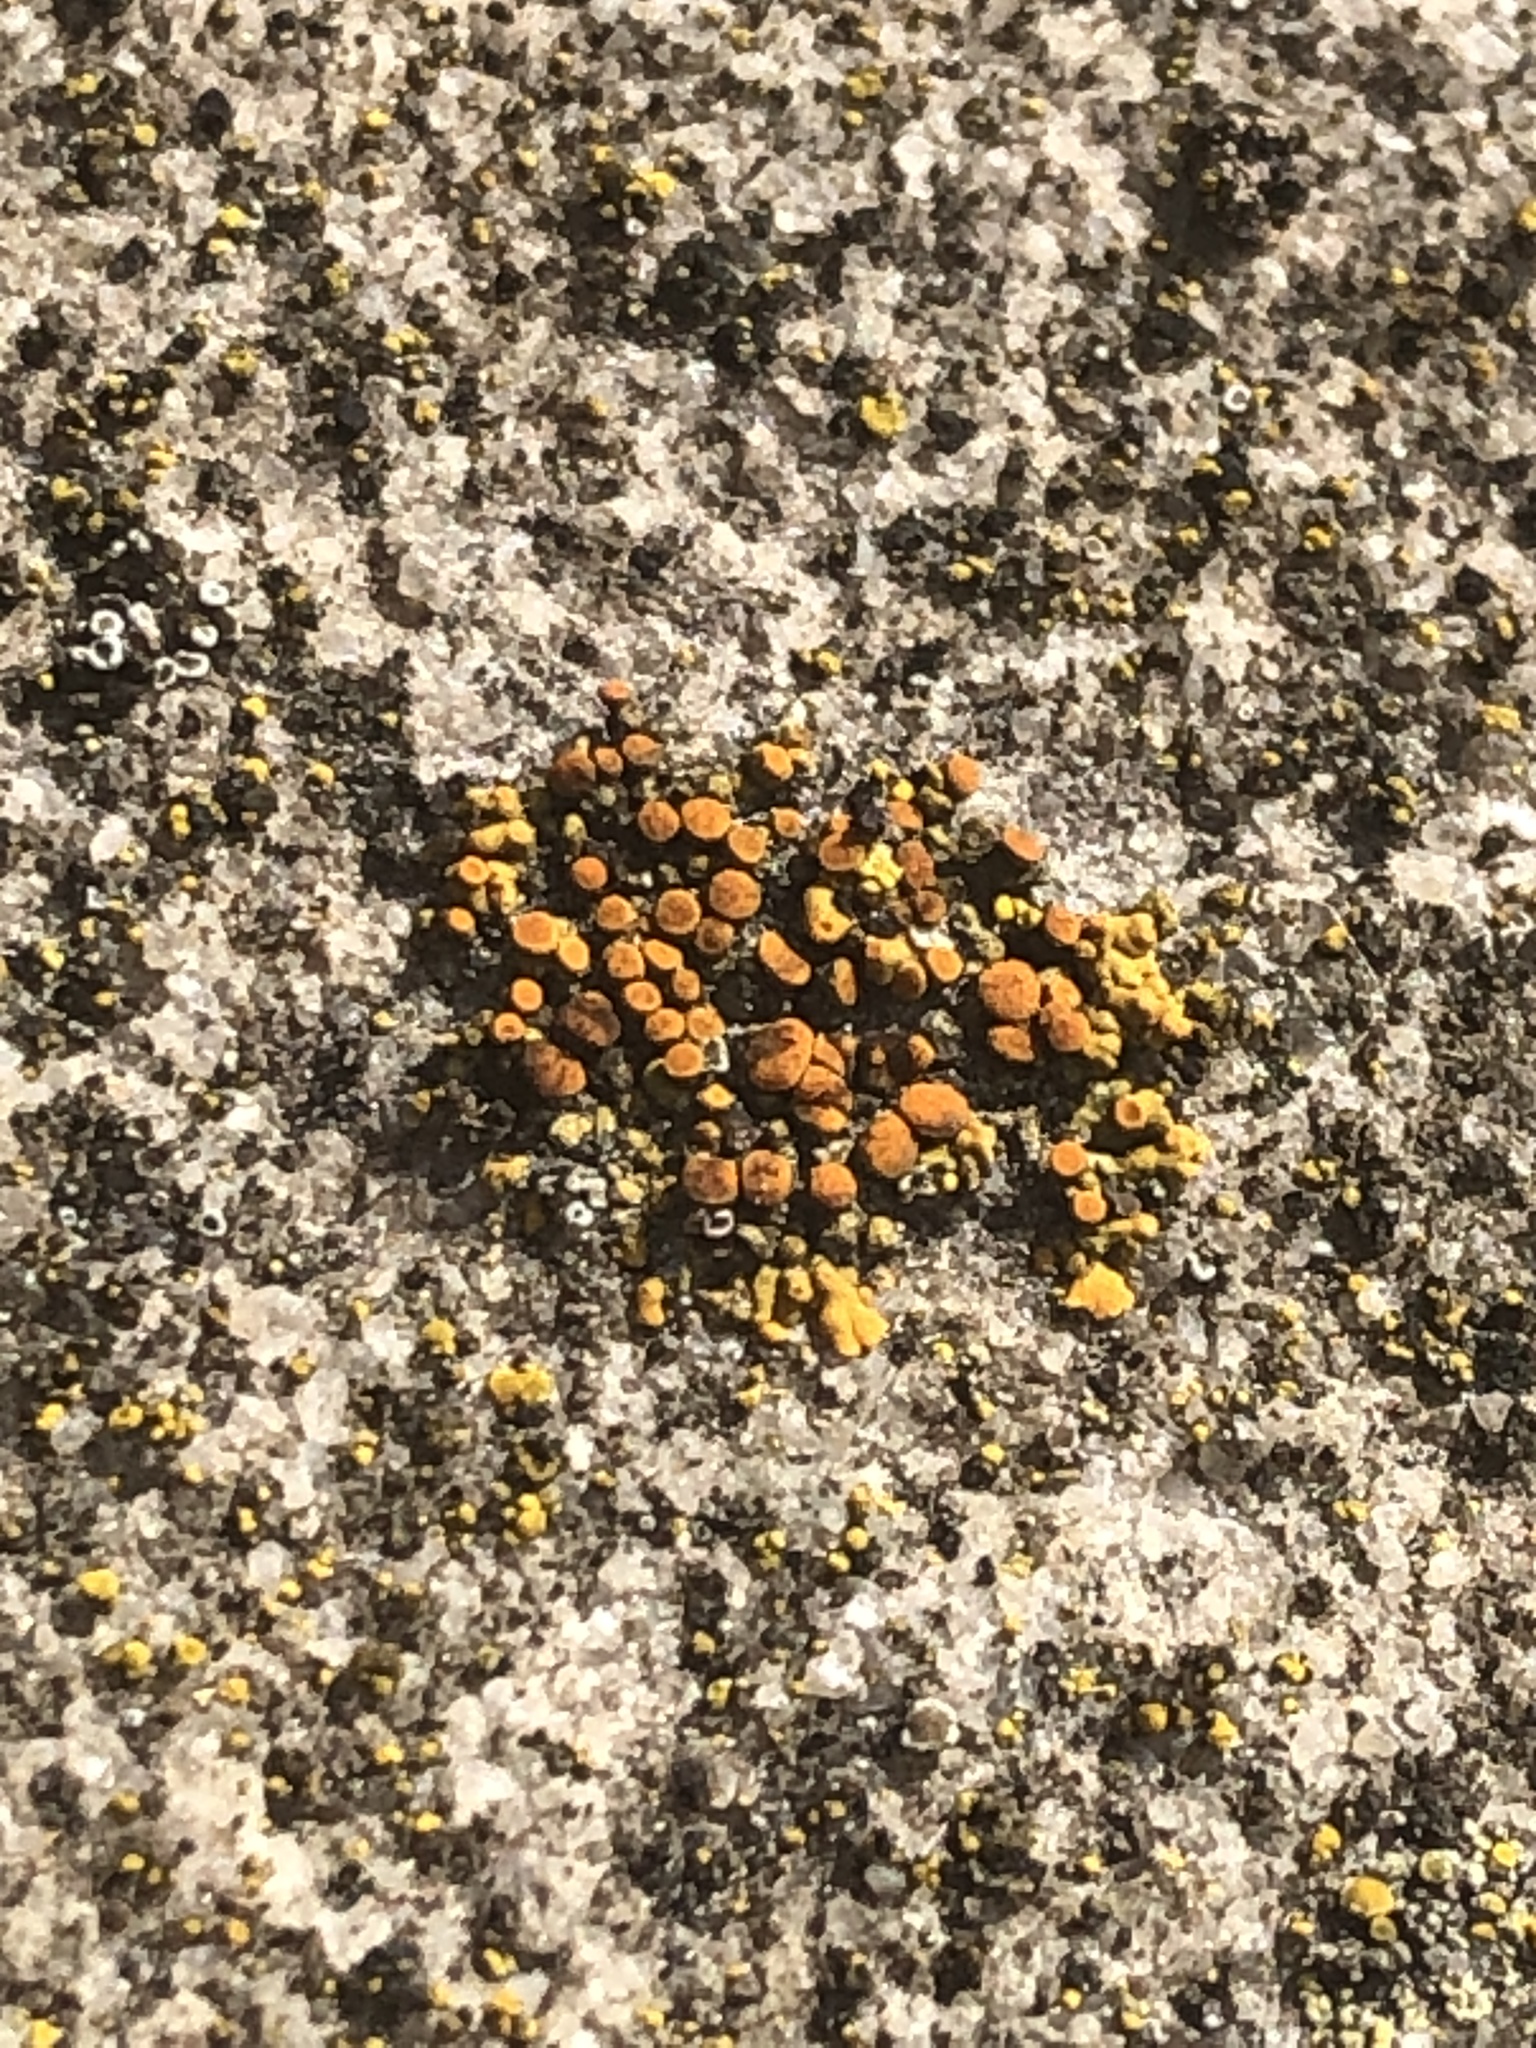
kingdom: Fungi
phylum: Ascomycota
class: Lecanoromycetes
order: Teloschistales
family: Teloschistaceae
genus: Calogaya
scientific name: Calogaya saxicola
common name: Rock jewel lichen
